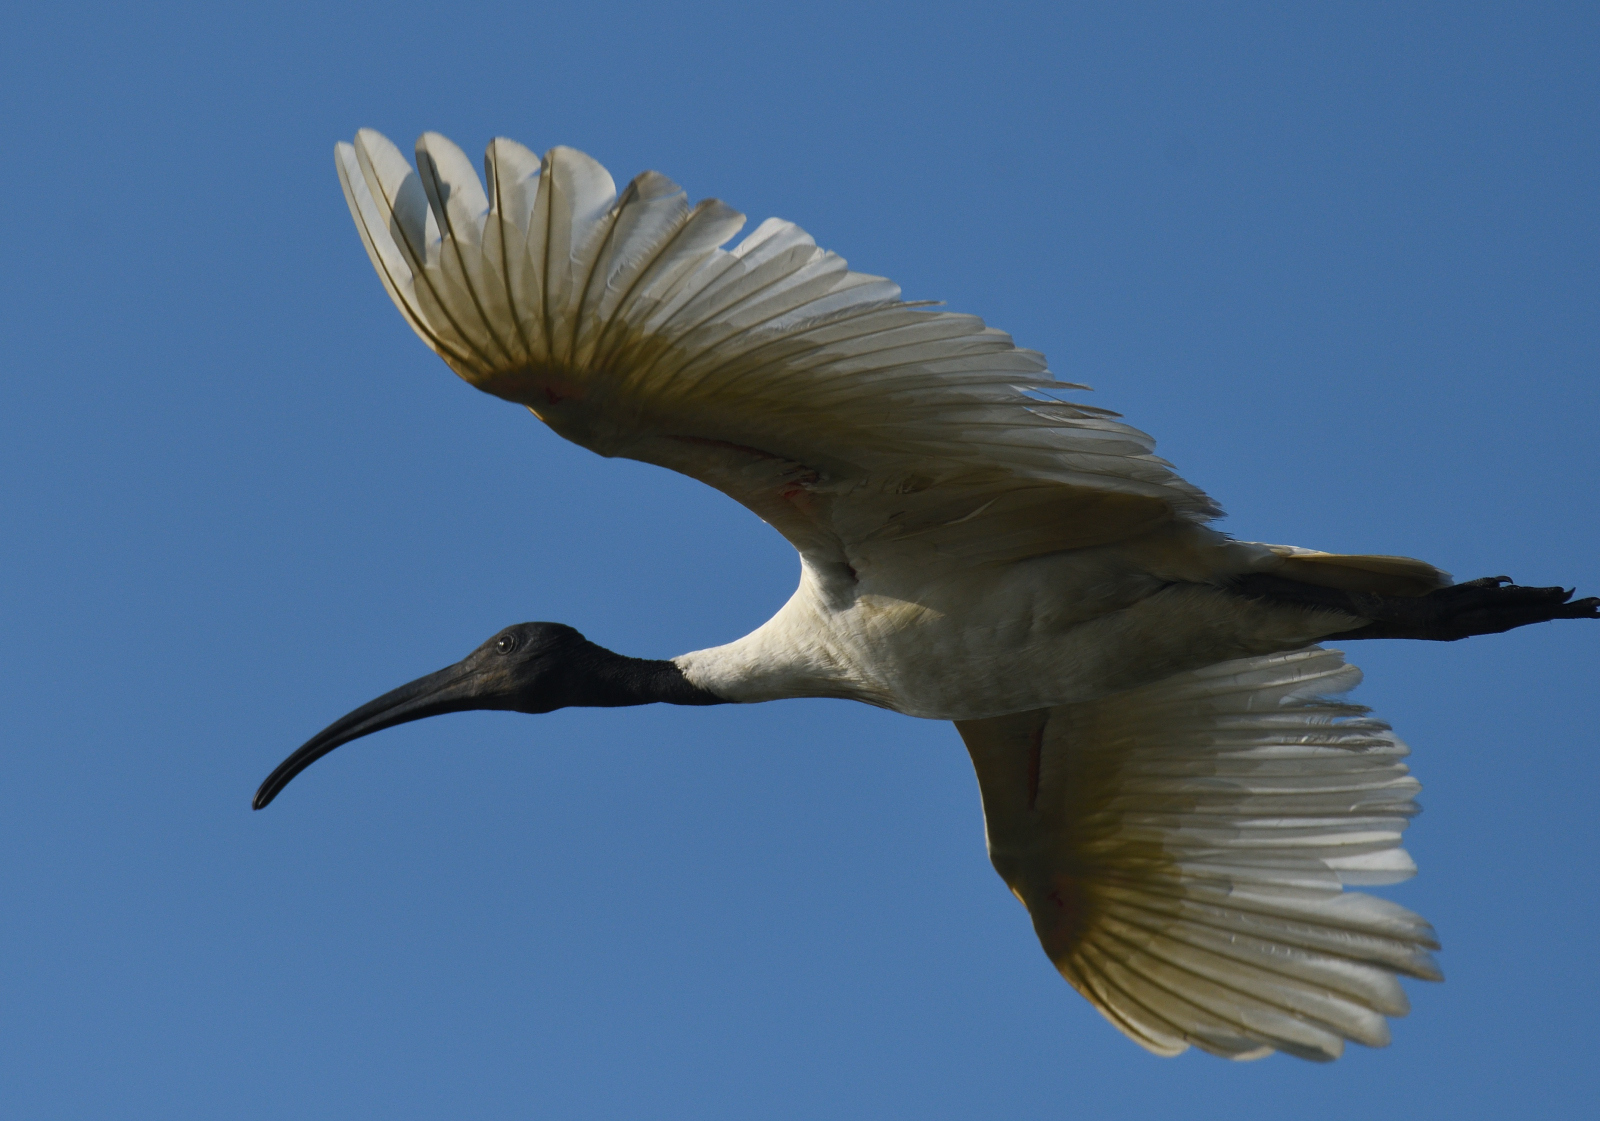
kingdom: Animalia
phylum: Chordata
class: Aves
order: Pelecaniformes
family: Threskiornithidae
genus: Threskiornis
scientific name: Threskiornis melanocephalus
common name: Black-headed ibis
